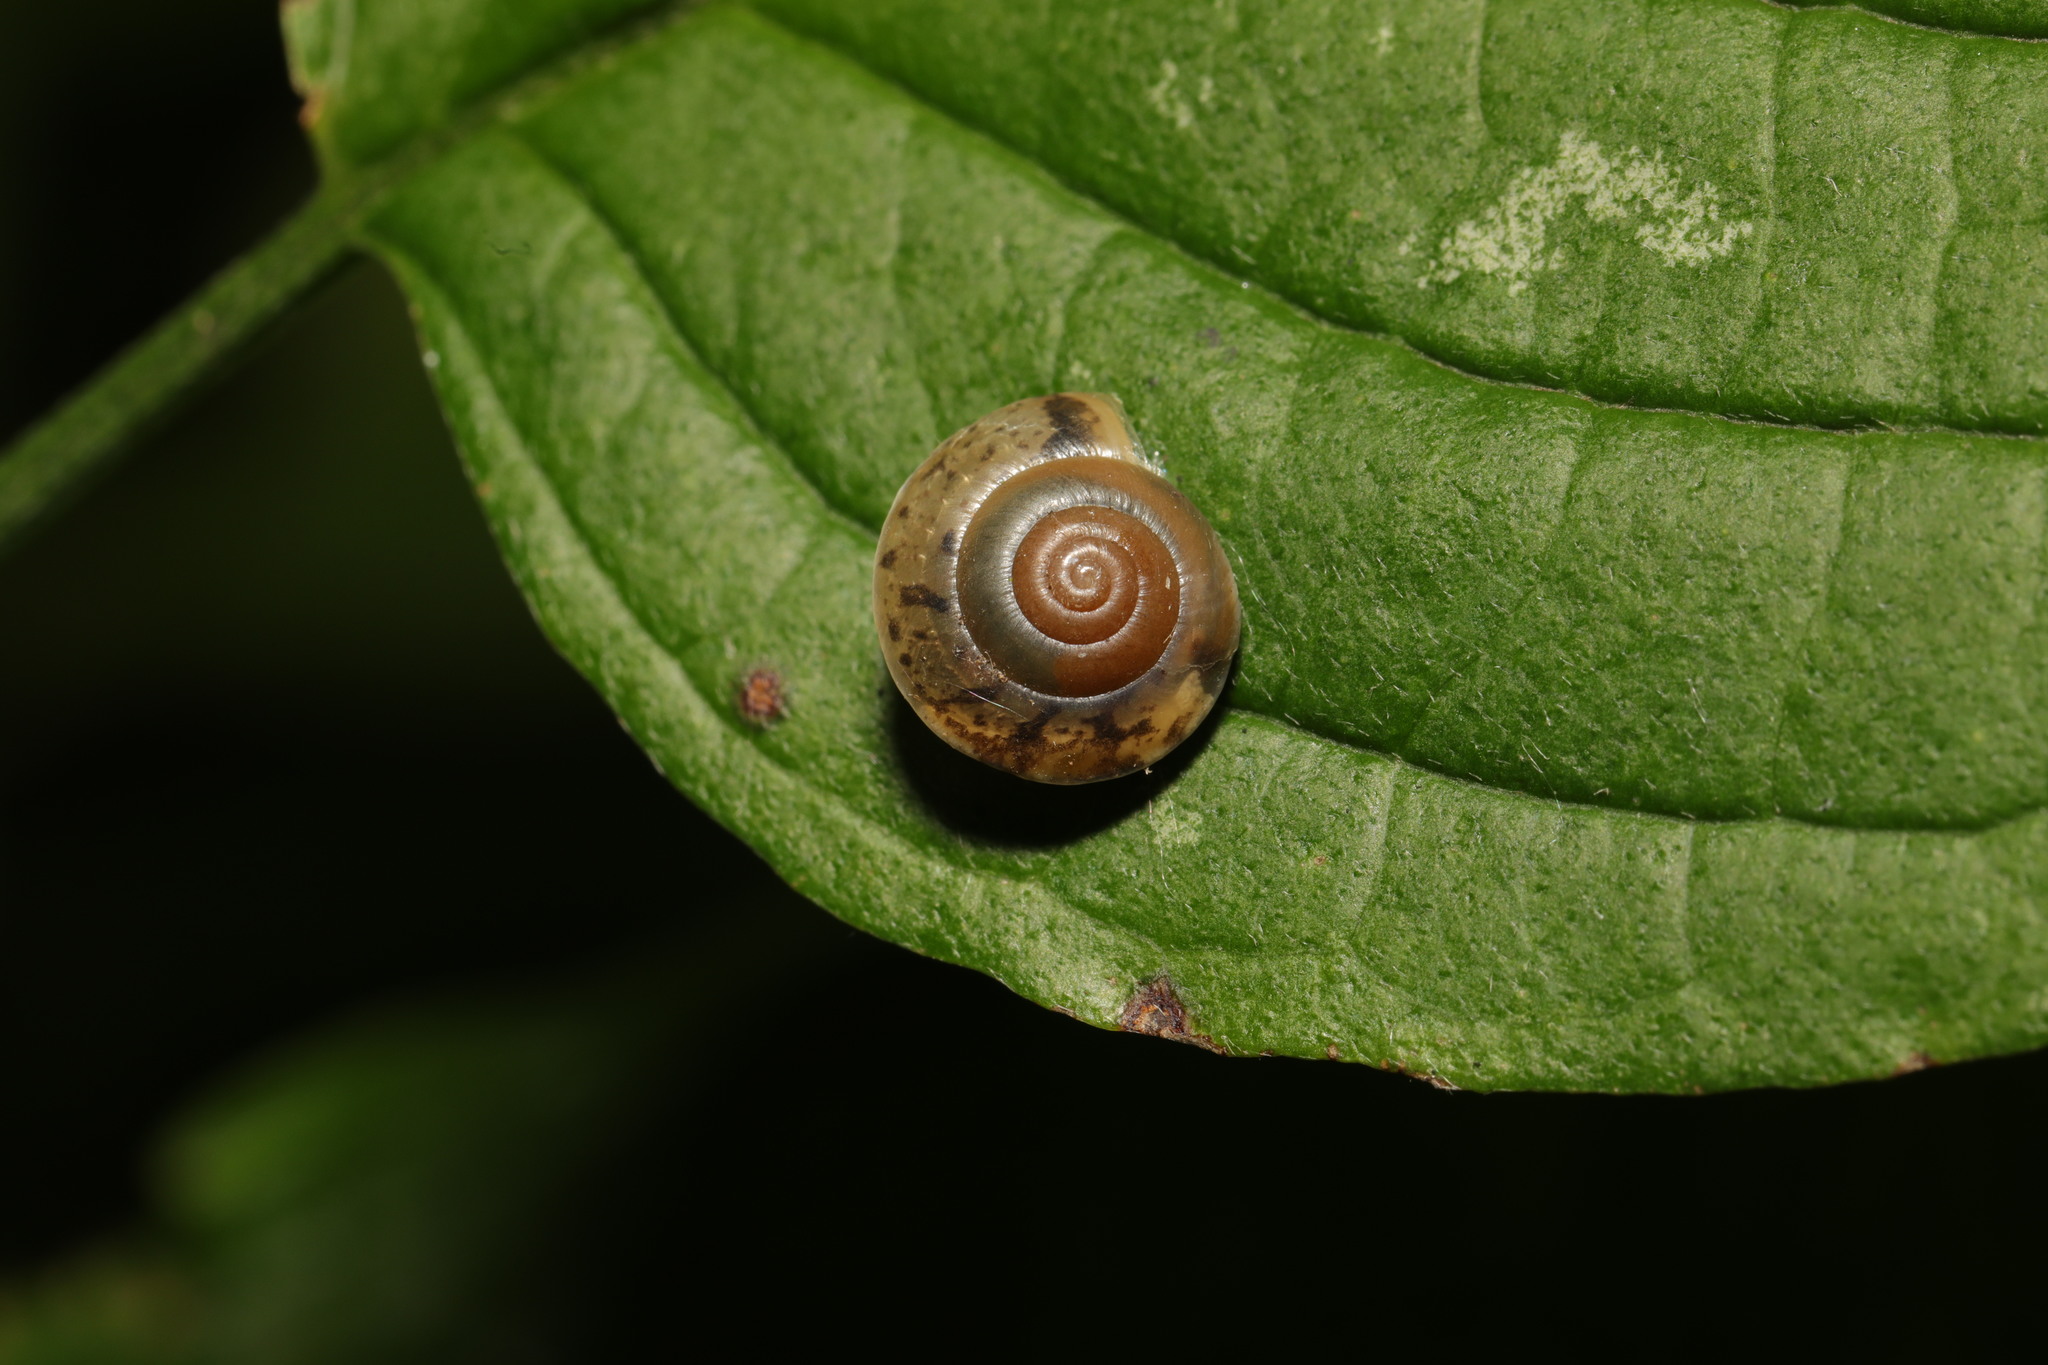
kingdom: Animalia
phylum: Mollusca
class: Gastropoda
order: Stylommatophora
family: Hygromiidae
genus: Hygromia
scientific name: Hygromia cinctella
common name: Girdled snail
